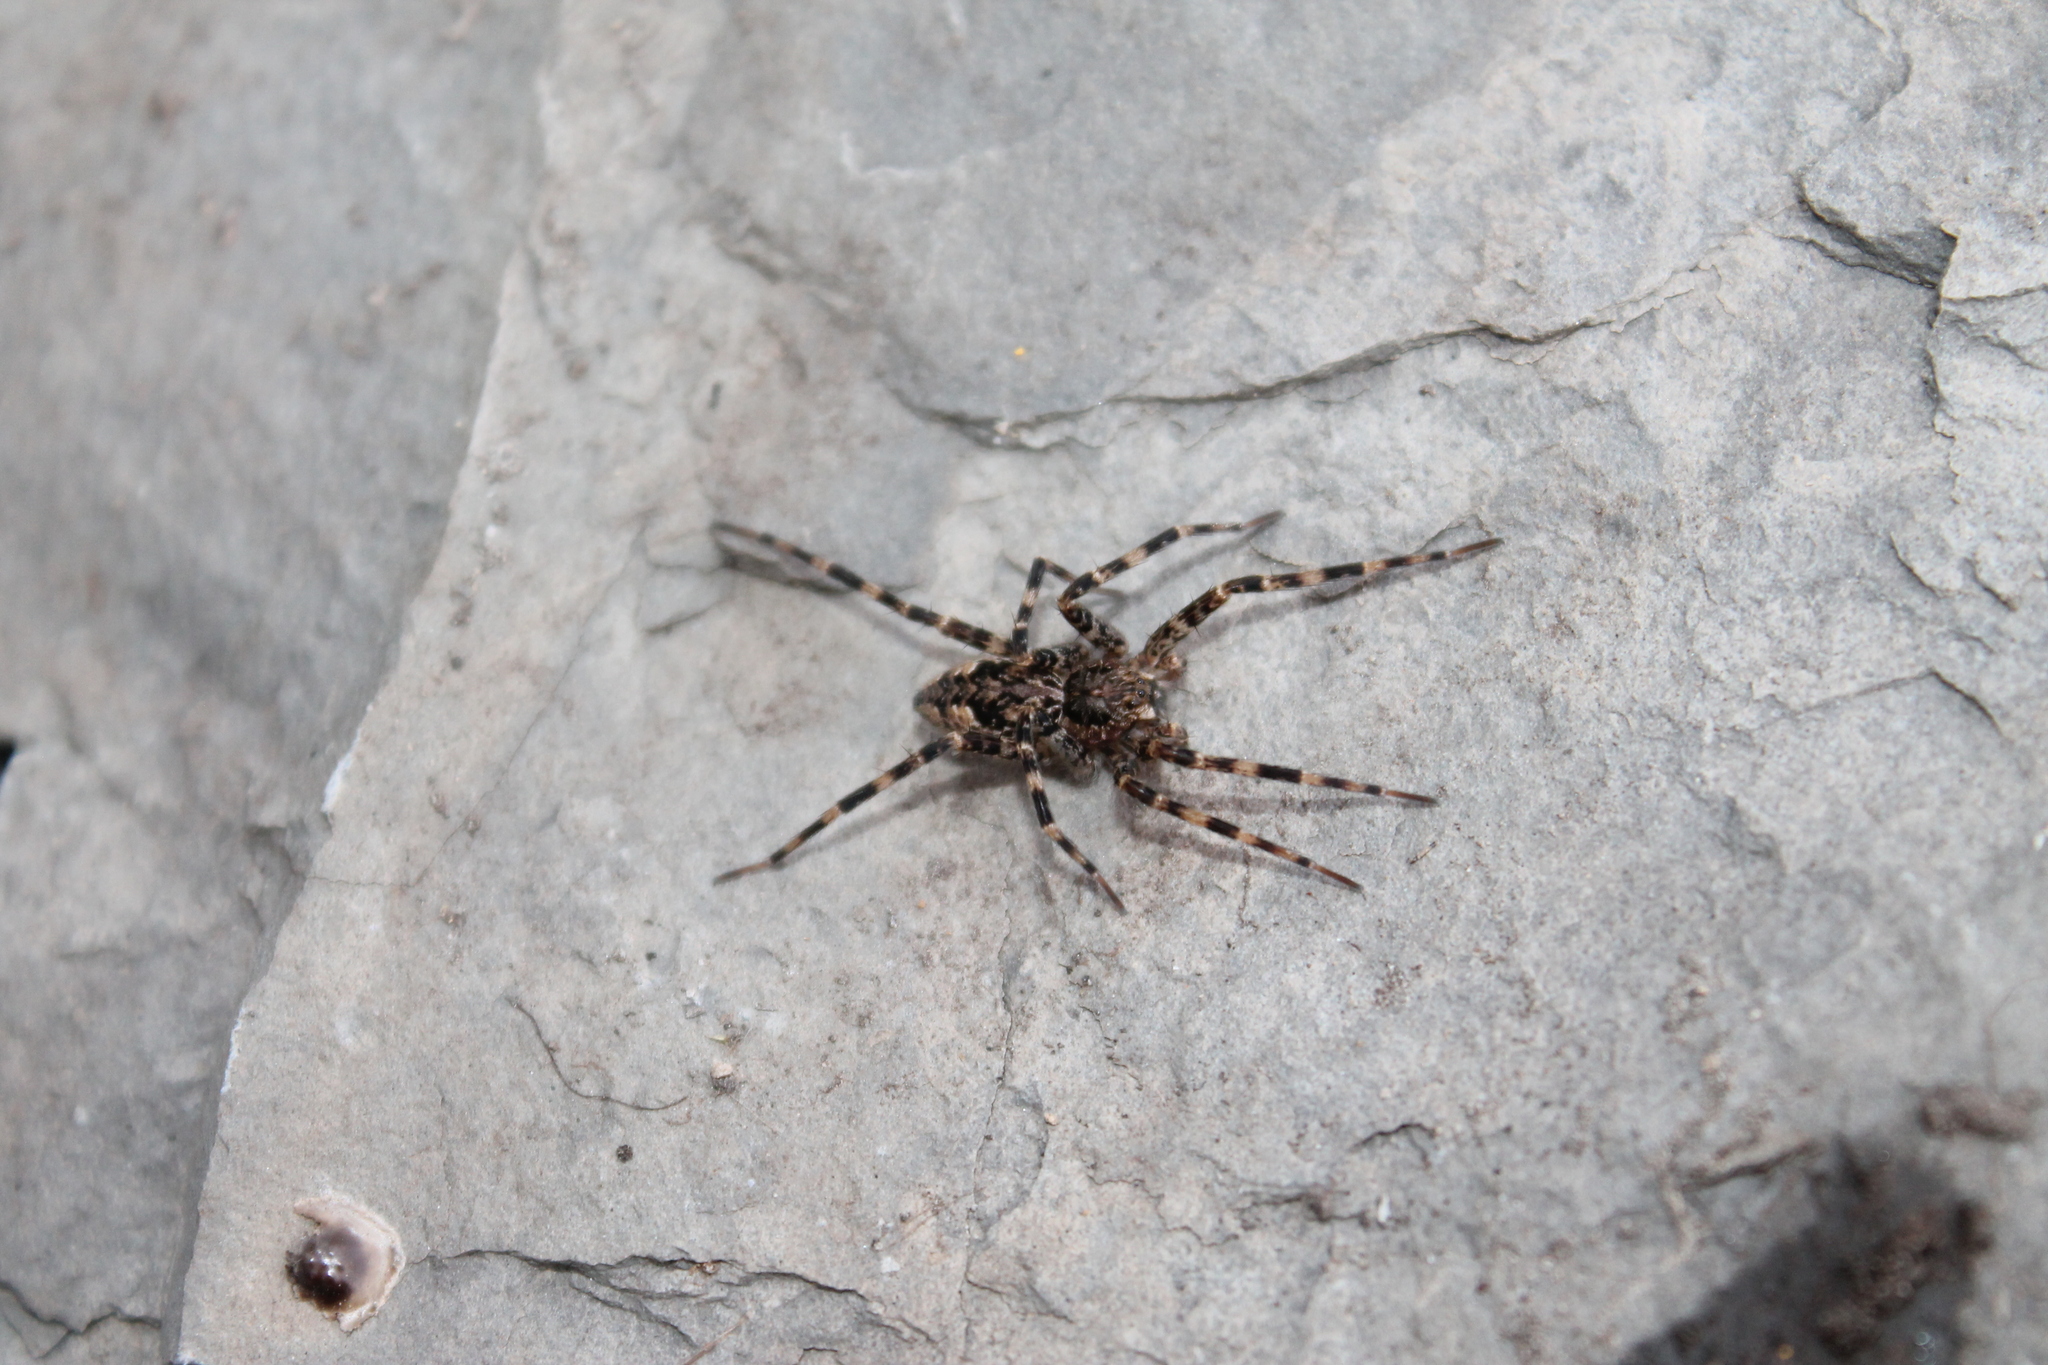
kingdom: Animalia
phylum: Arthropoda
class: Arachnida
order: Araneae
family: Pisauridae
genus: Dolomedes
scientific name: Dolomedes tenebrosus
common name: Dark fishing spider
